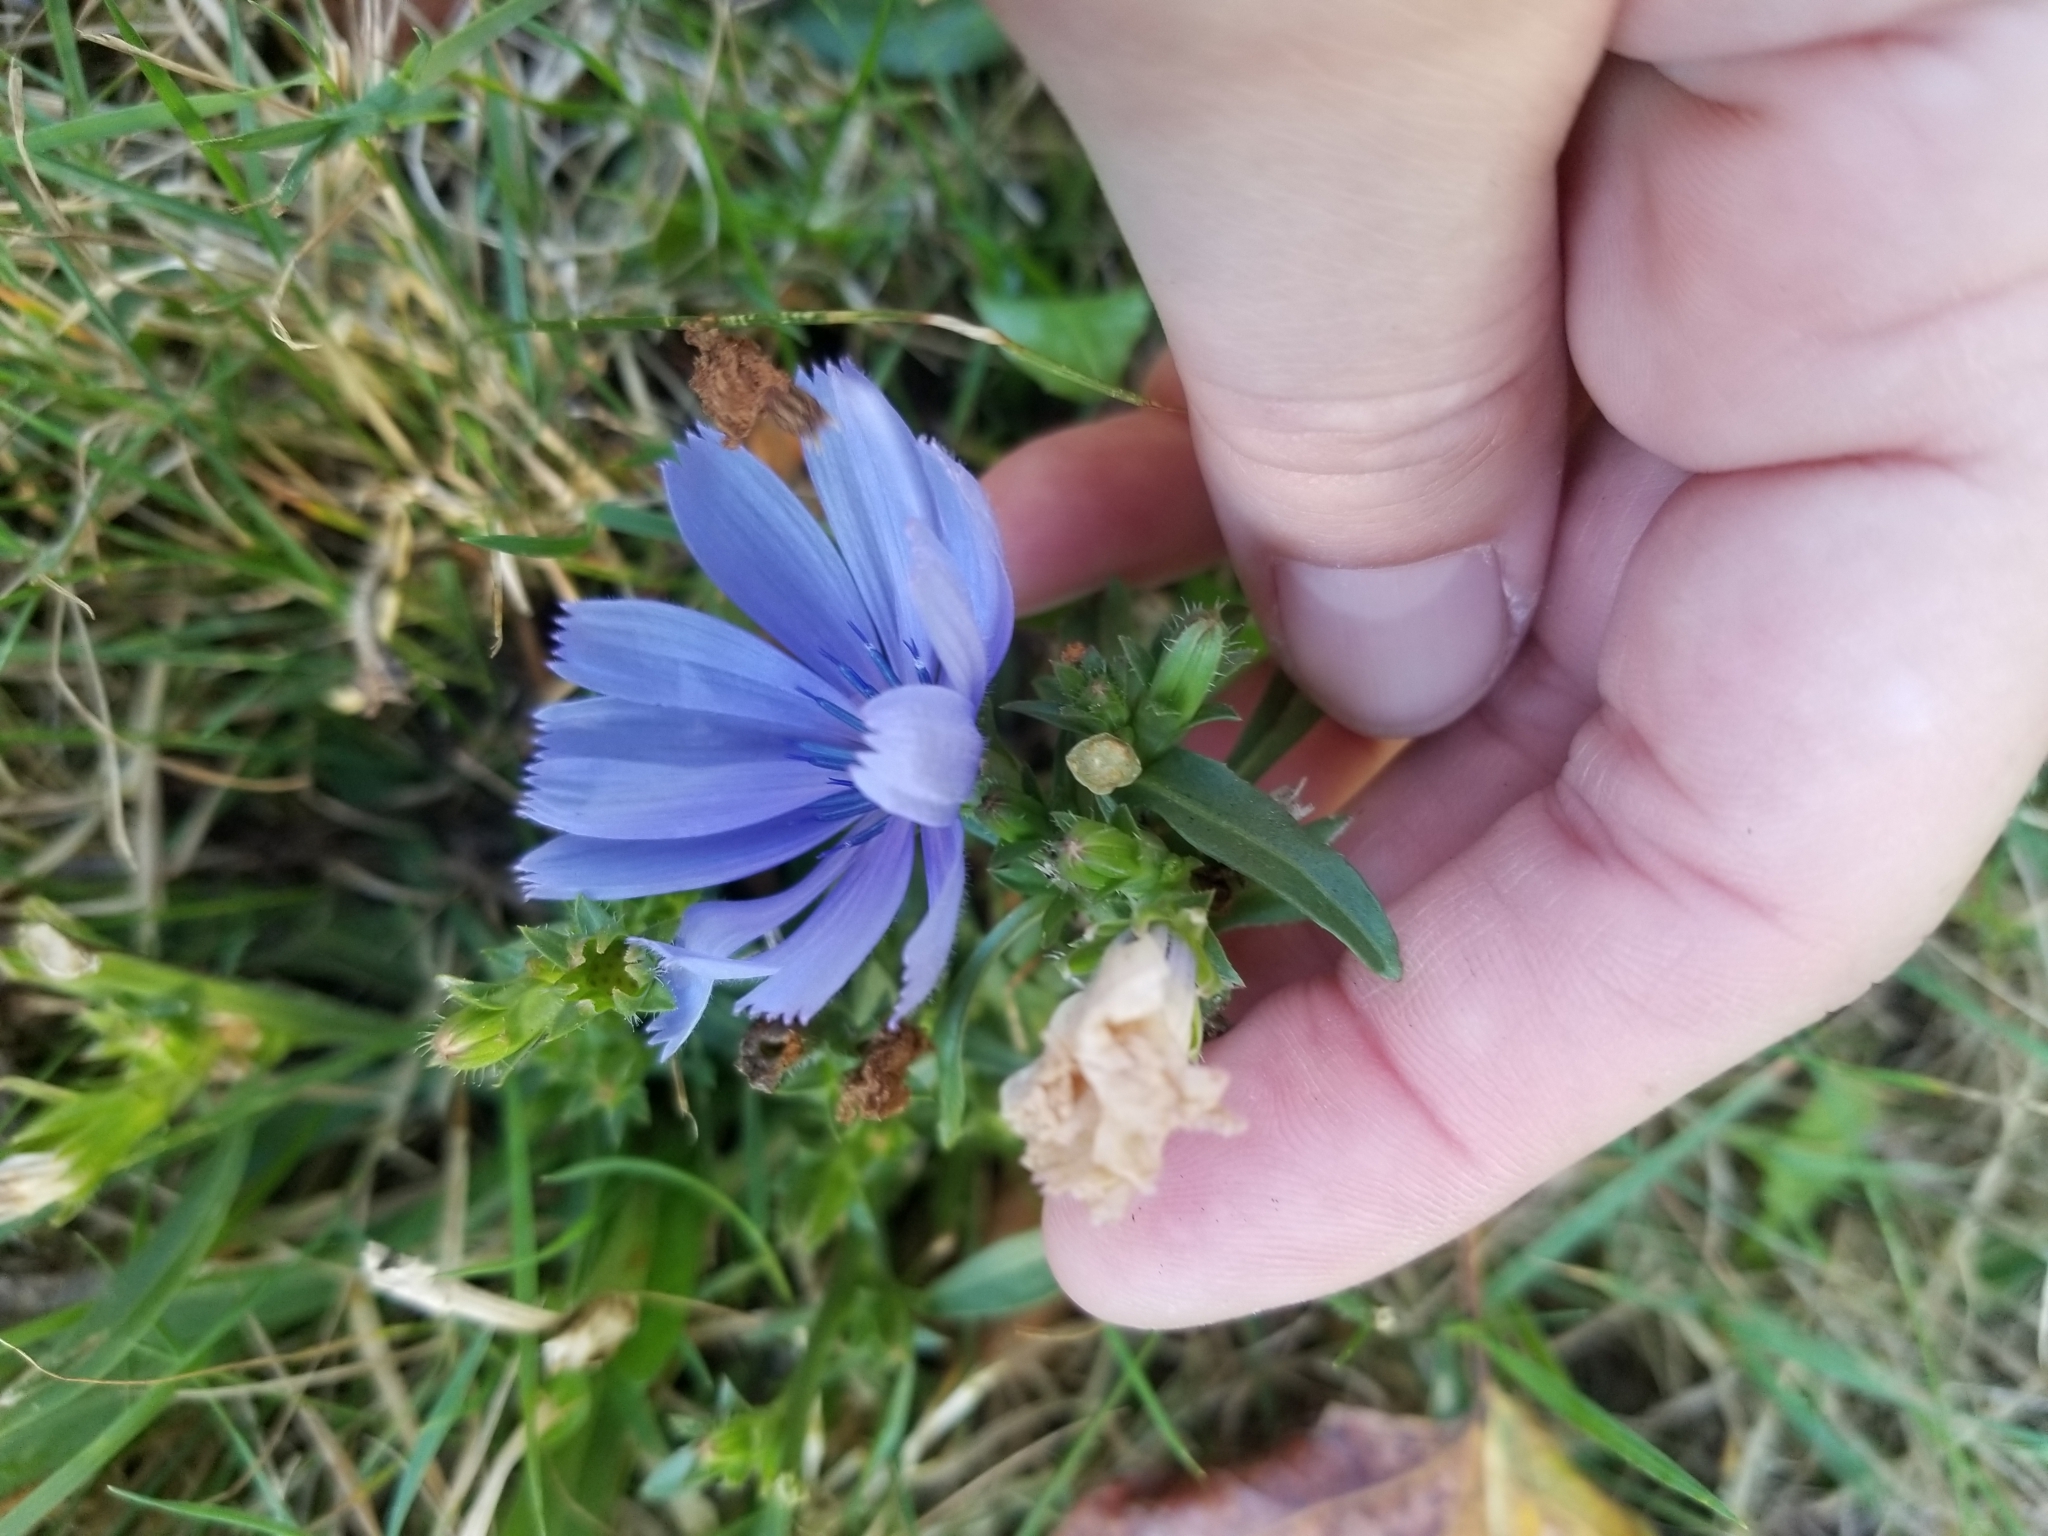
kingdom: Plantae
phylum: Tracheophyta
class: Magnoliopsida
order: Asterales
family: Asteraceae
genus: Cichorium
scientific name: Cichorium intybus
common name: Chicory
